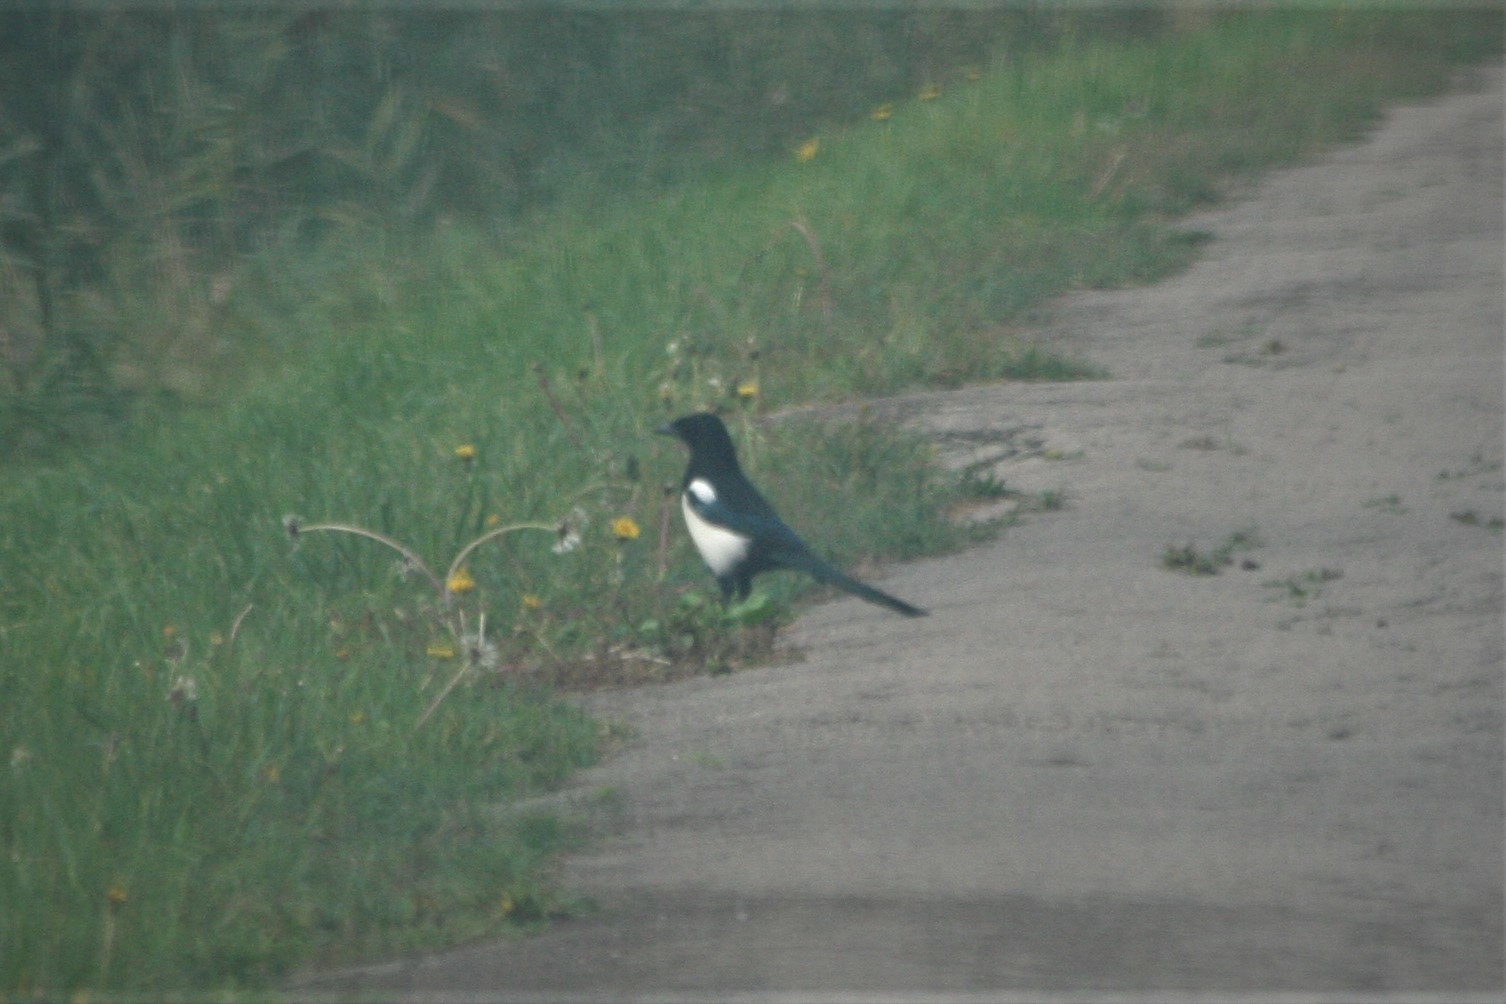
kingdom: Animalia
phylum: Chordata
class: Aves
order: Passeriformes
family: Corvidae
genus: Pica
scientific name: Pica pica
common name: Eurasian magpie
